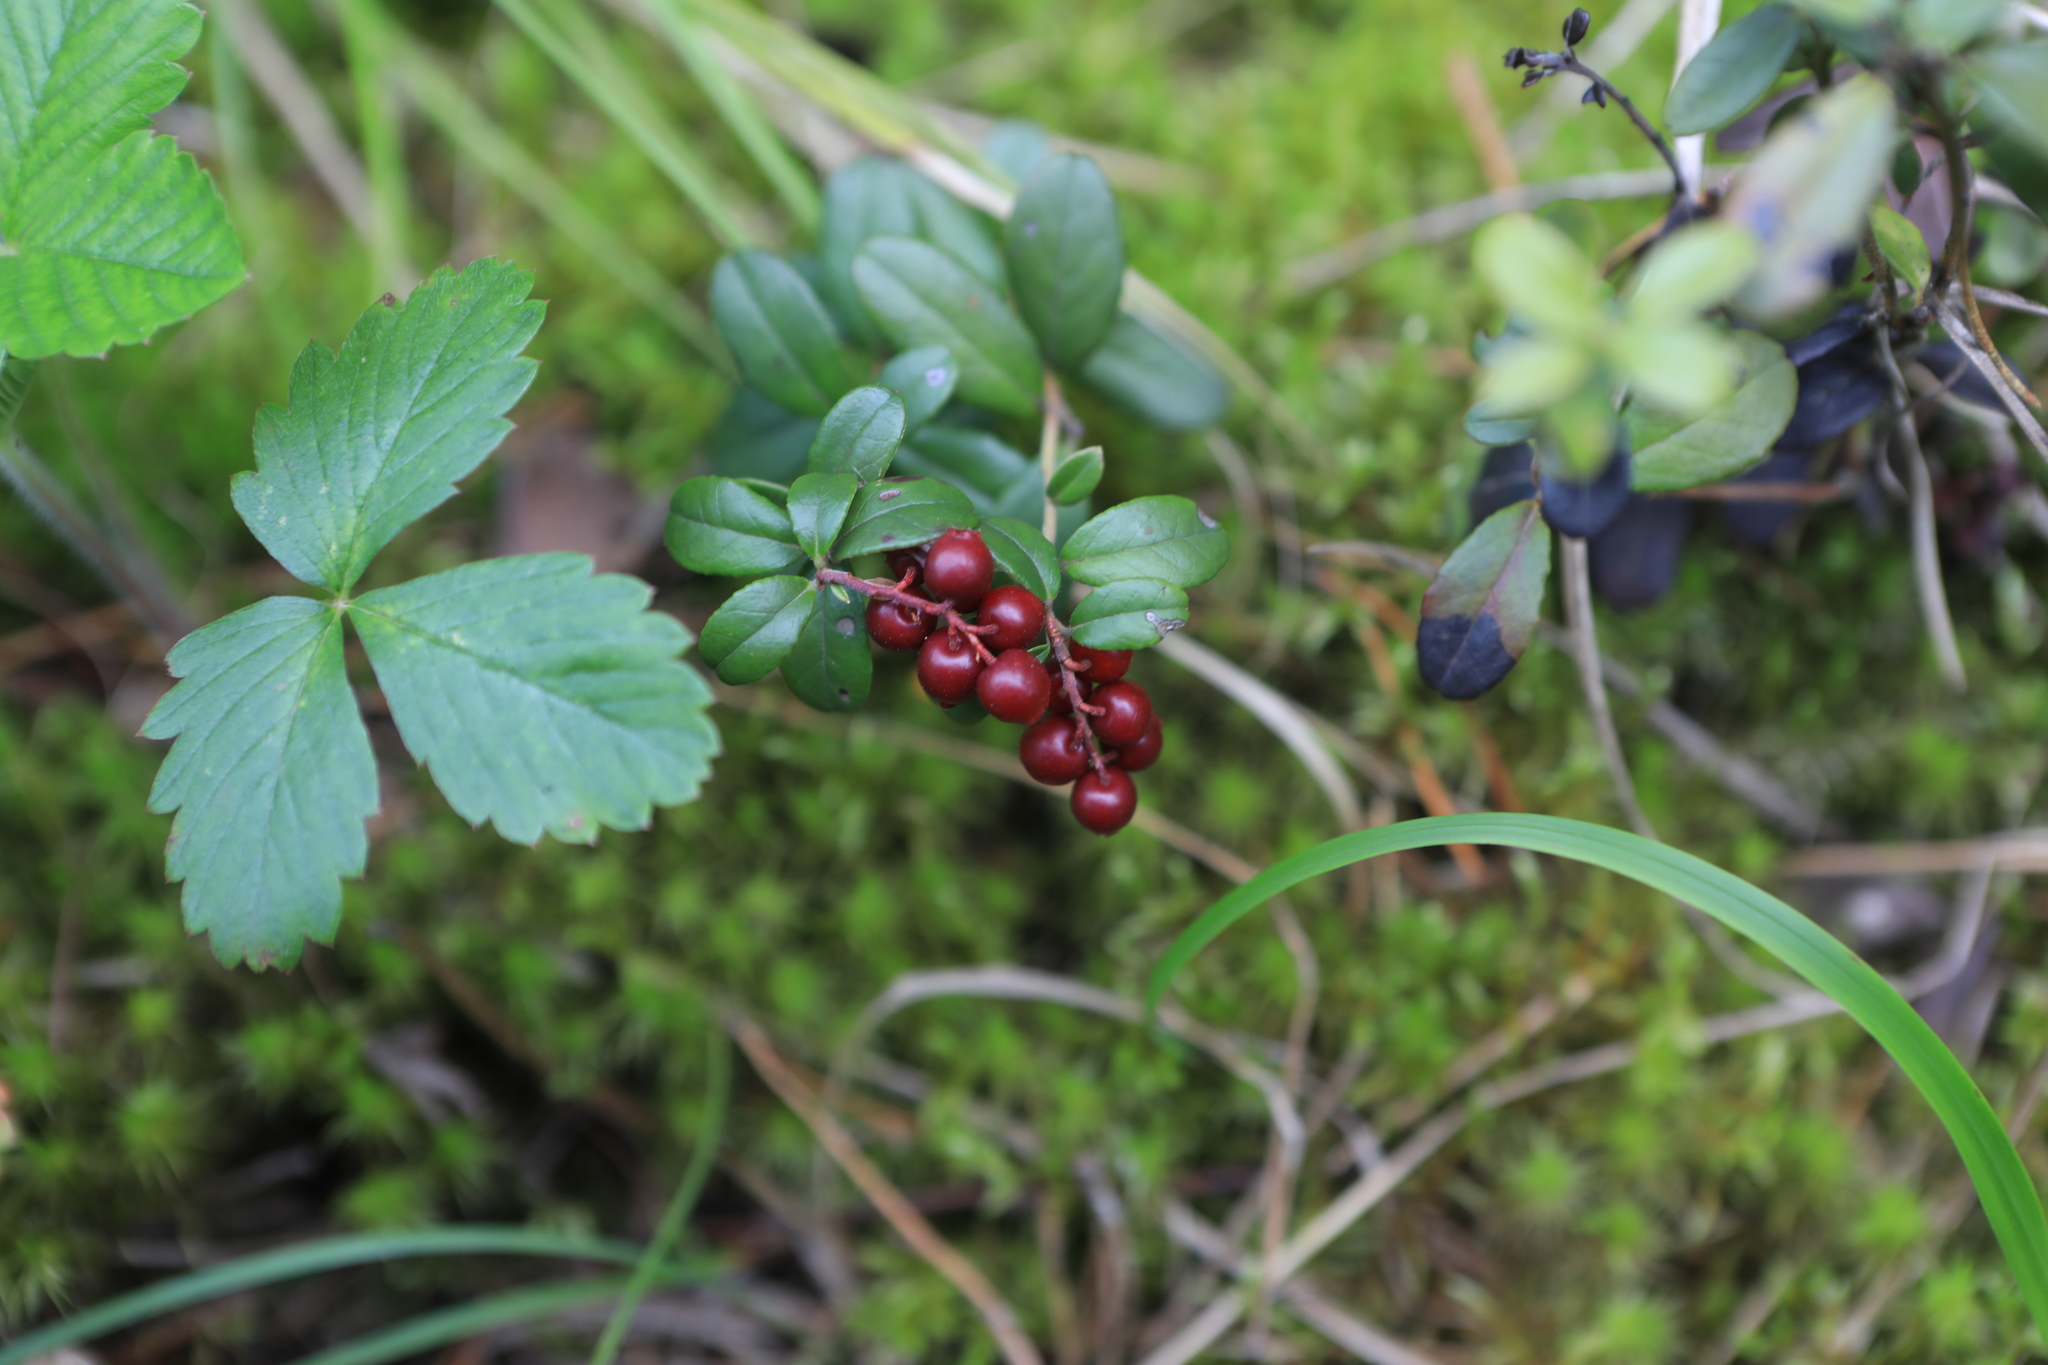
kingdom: Plantae
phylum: Tracheophyta
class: Magnoliopsida
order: Ericales
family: Ericaceae
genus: Vaccinium
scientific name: Vaccinium vitis-idaea
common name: Cowberry
